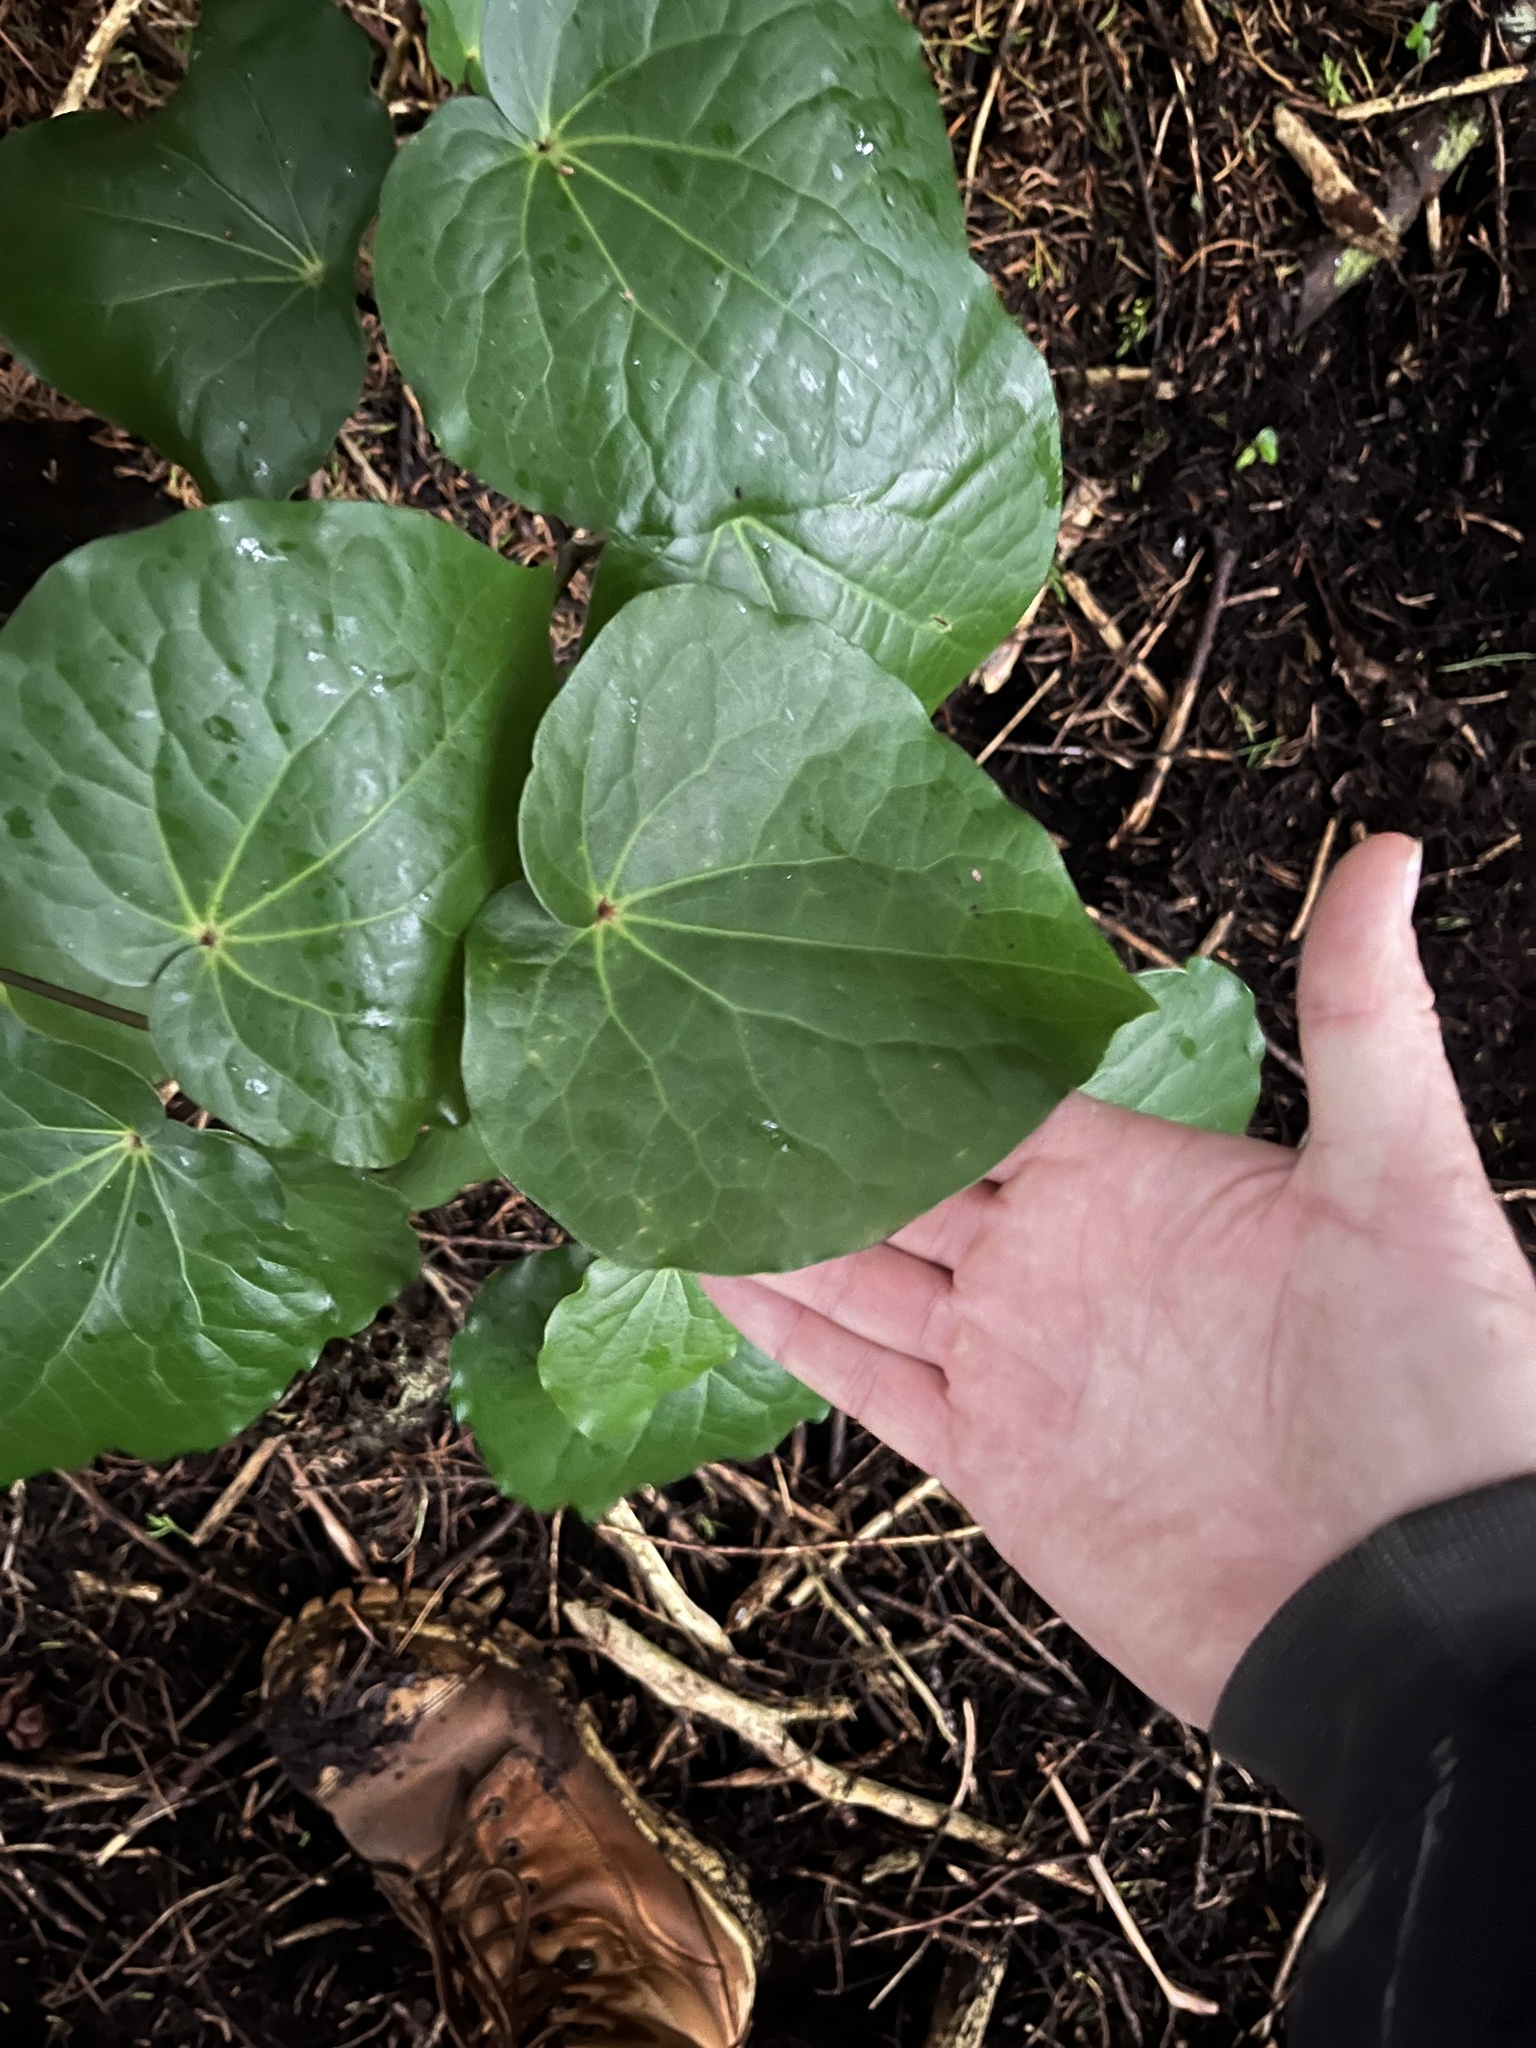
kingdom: Plantae
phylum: Tracheophyta
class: Magnoliopsida
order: Piperales
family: Piperaceae
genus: Macropiper
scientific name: Macropiper excelsum
